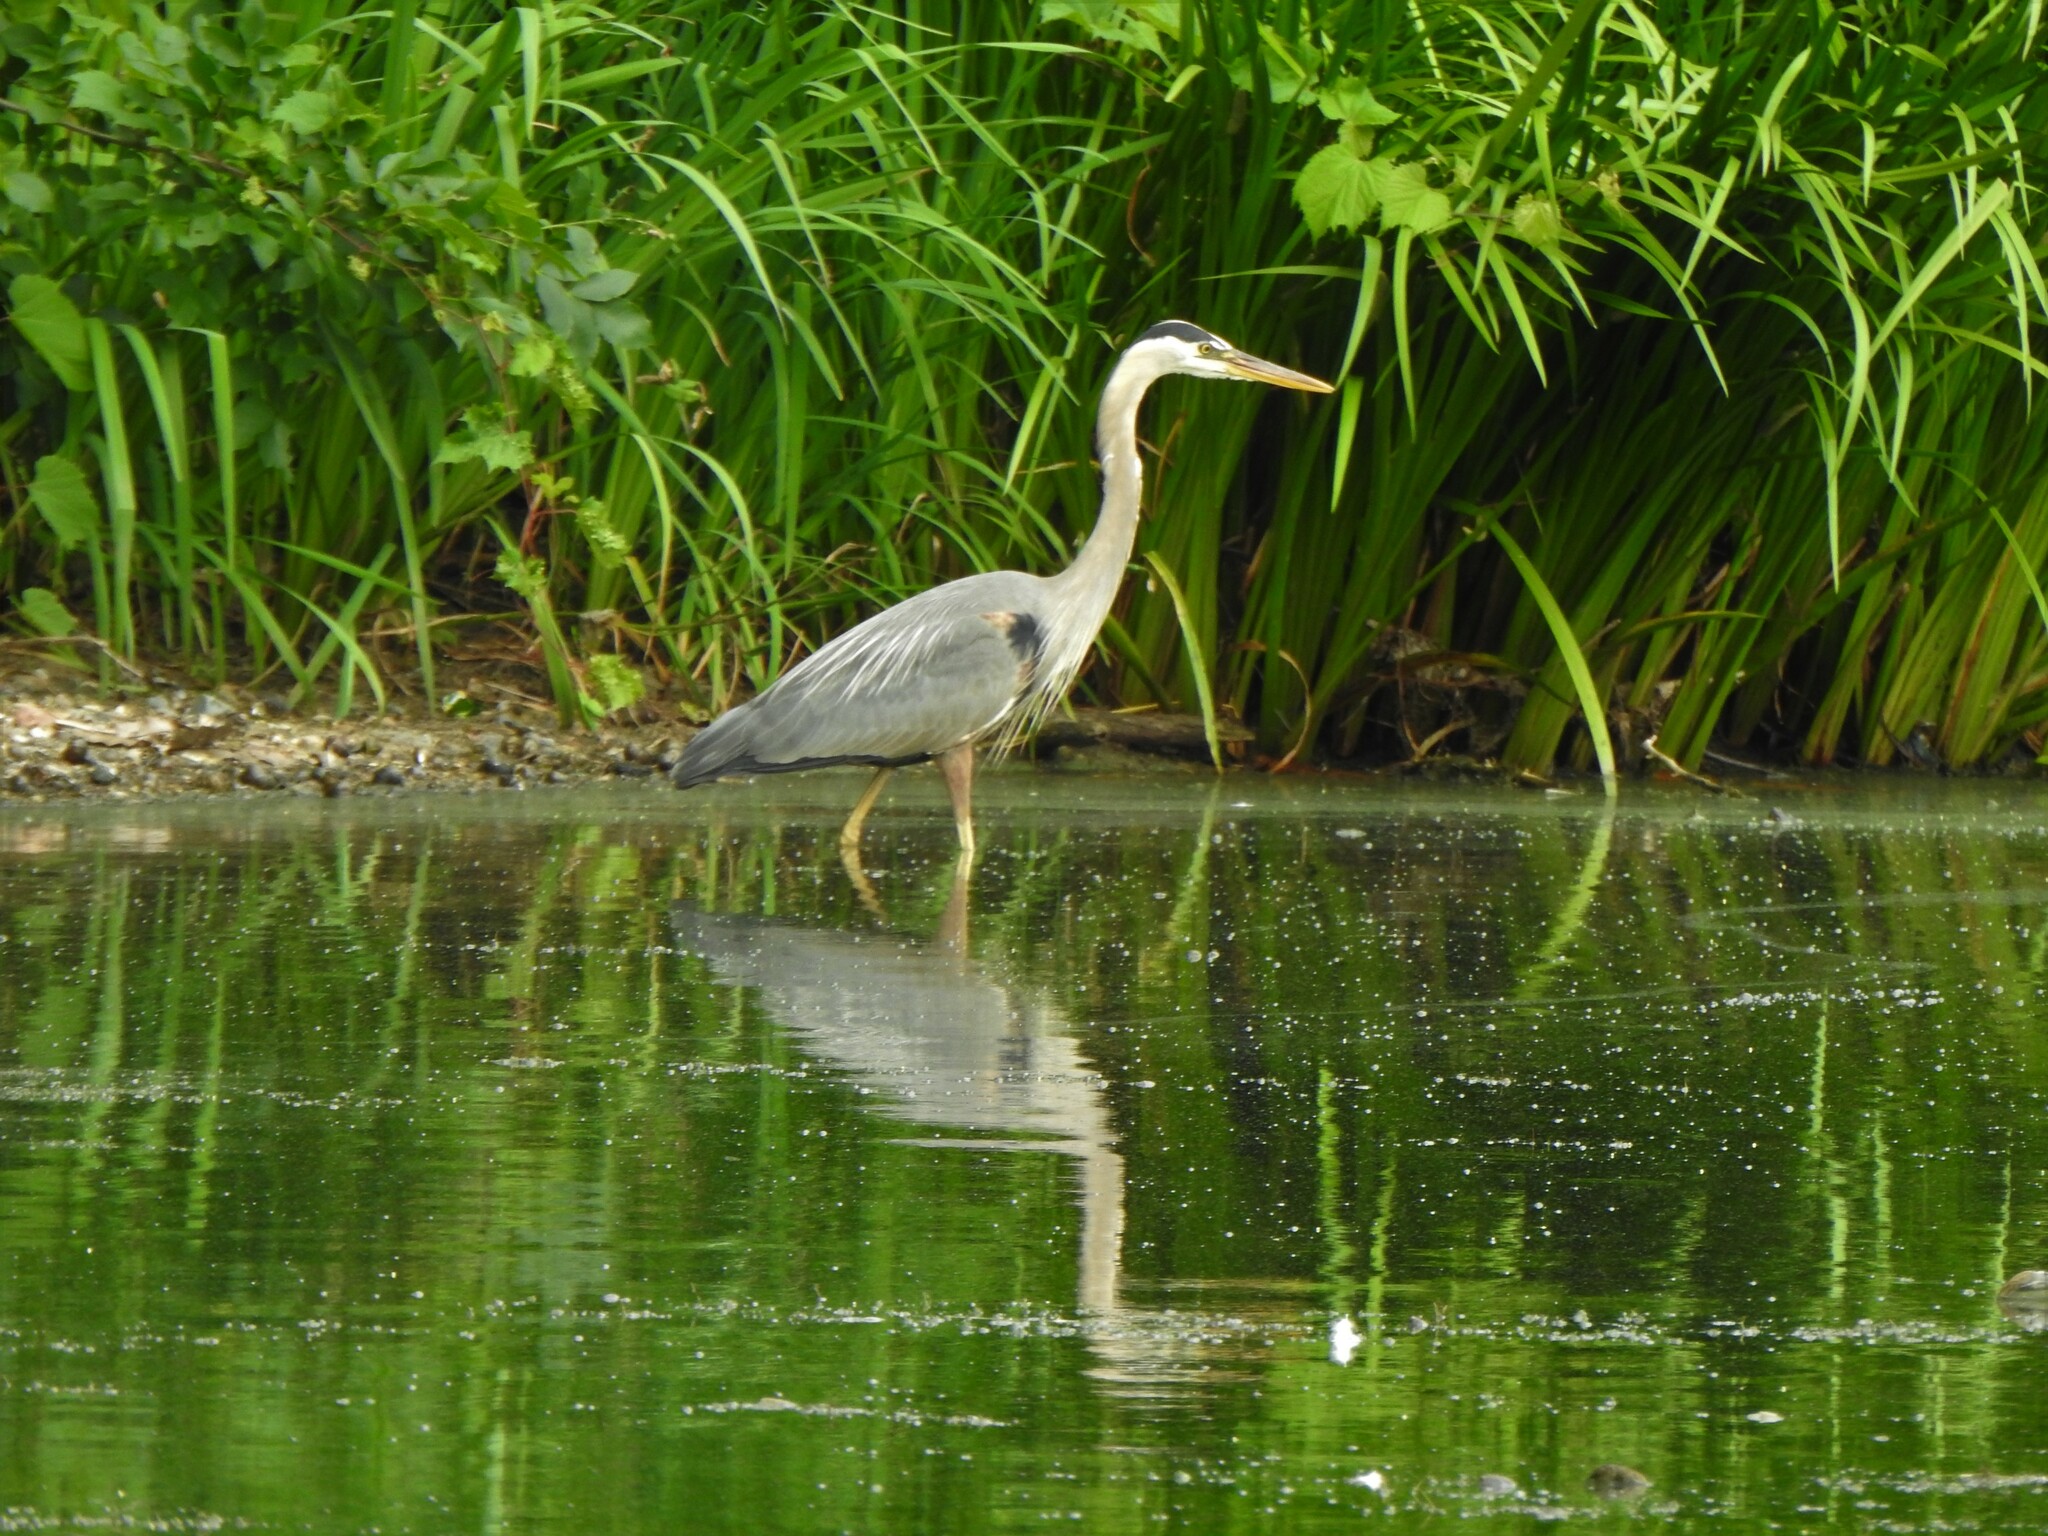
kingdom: Animalia
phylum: Chordata
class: Aves
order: Pelecaniformes
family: Ardeidae
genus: Ardea
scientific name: Ardea herodias
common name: Great blue heron
